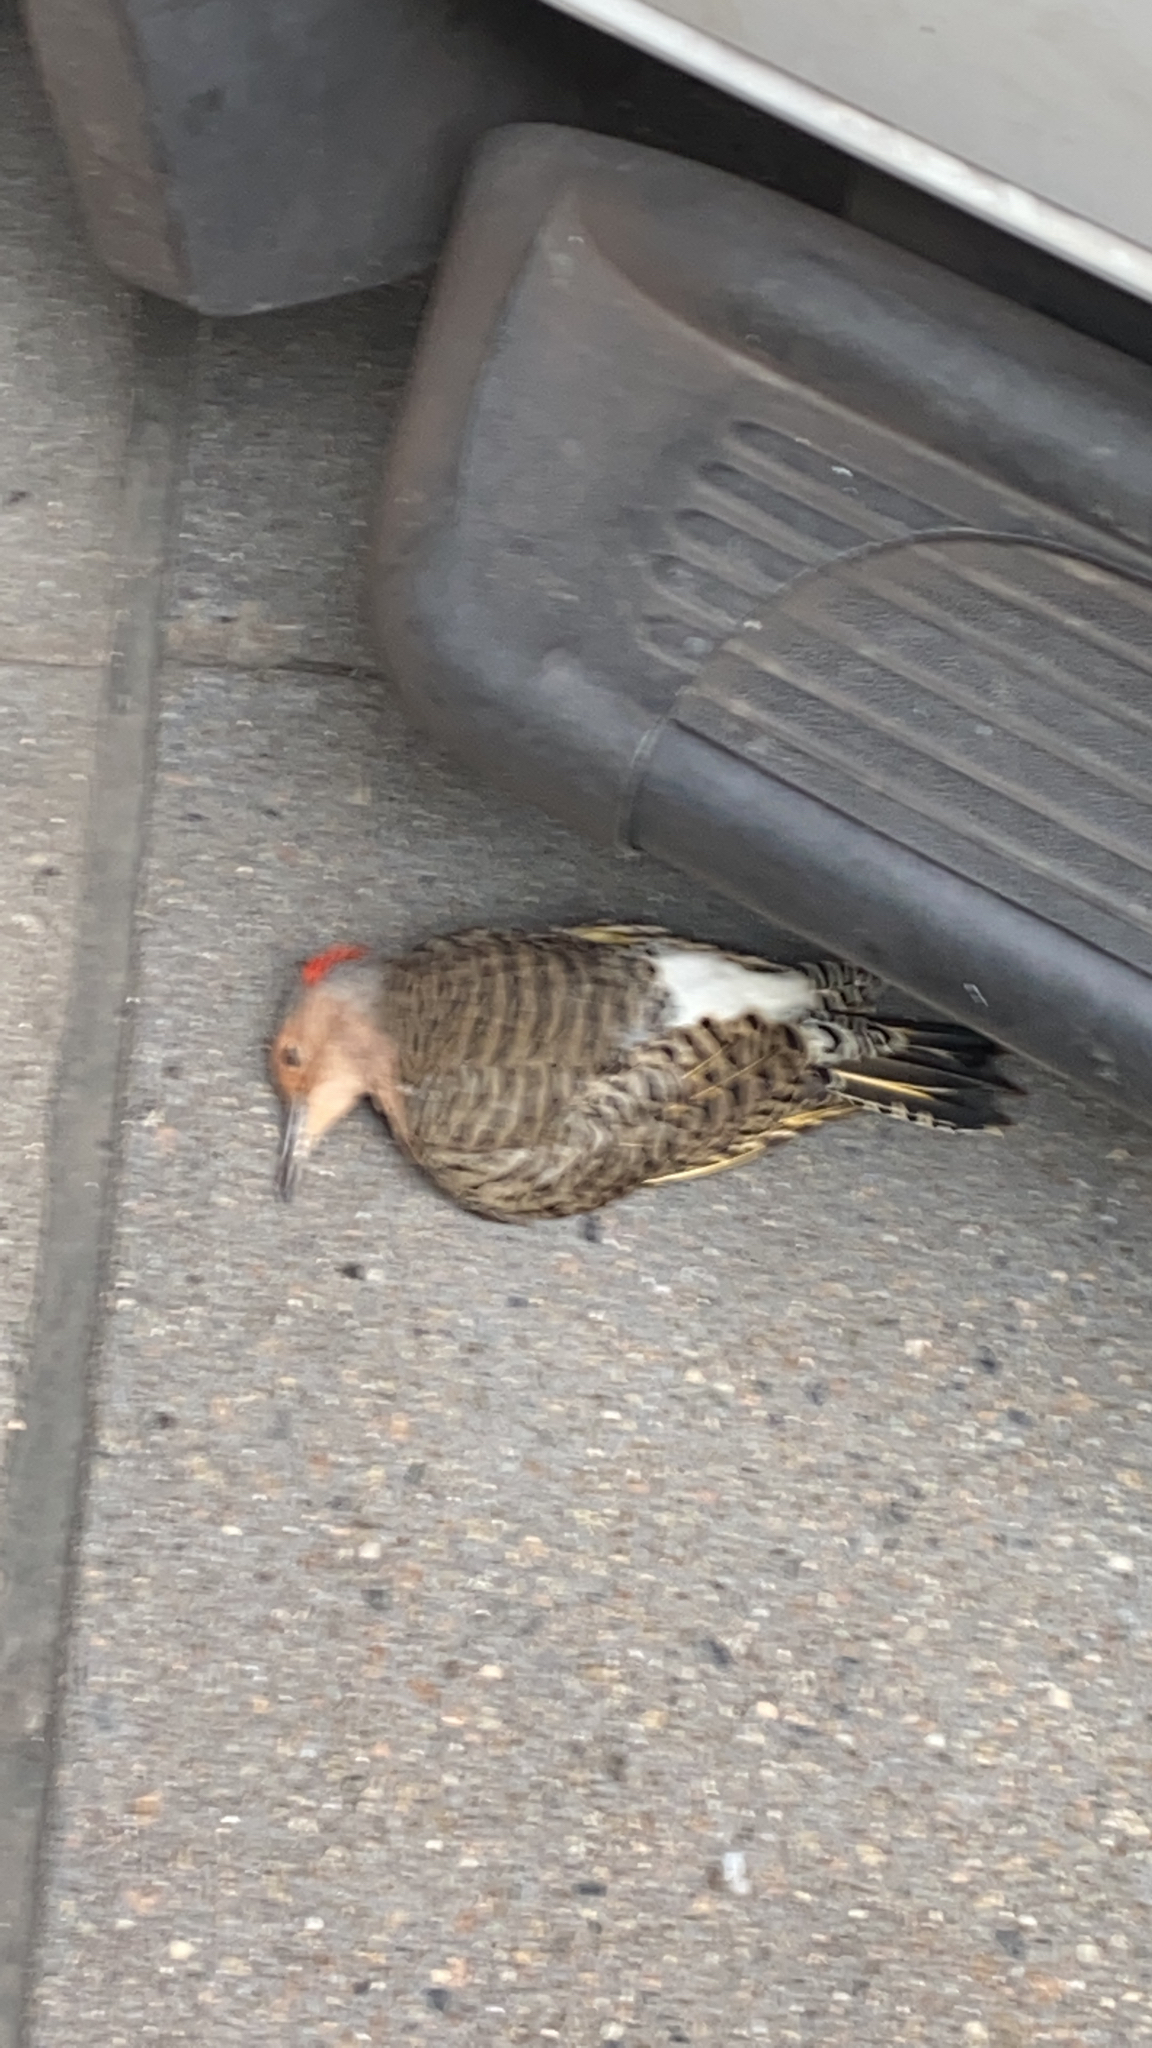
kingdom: Animalia
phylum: Chordata
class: Aves
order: Piciformes
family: Picidae
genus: Colaptes
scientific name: Colaptes auratus
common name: Northern flicker
